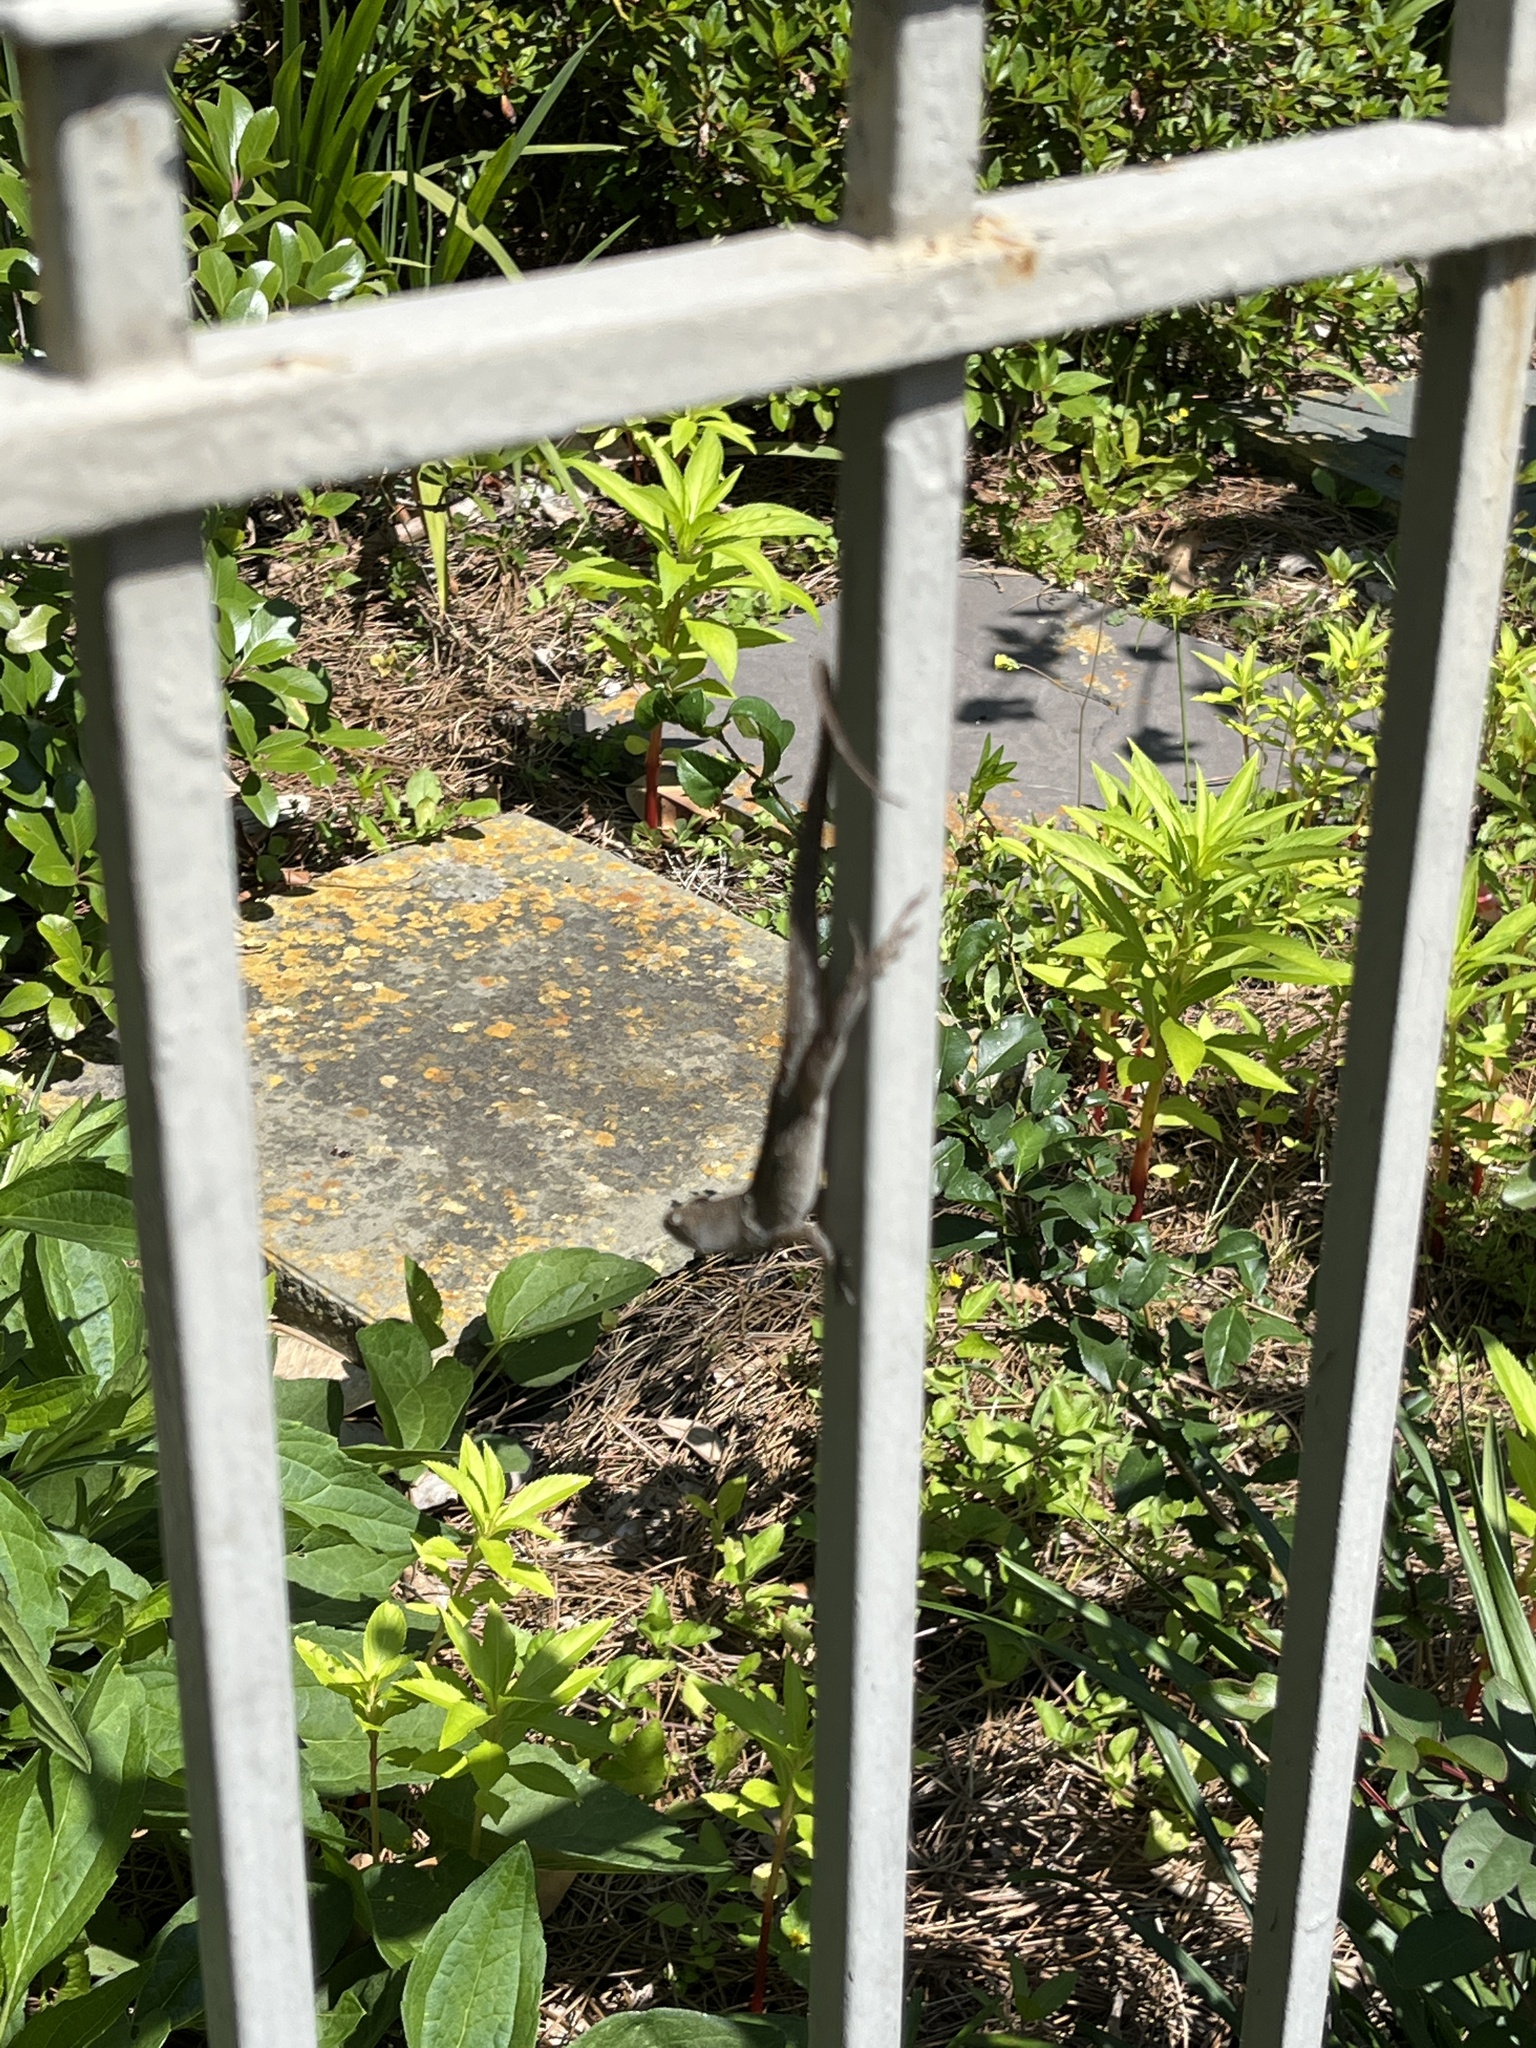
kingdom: Animalia
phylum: Chordata
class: Squamata
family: Dactyloidae
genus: Anolis
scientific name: Anolis sagrei
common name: Brown anole
